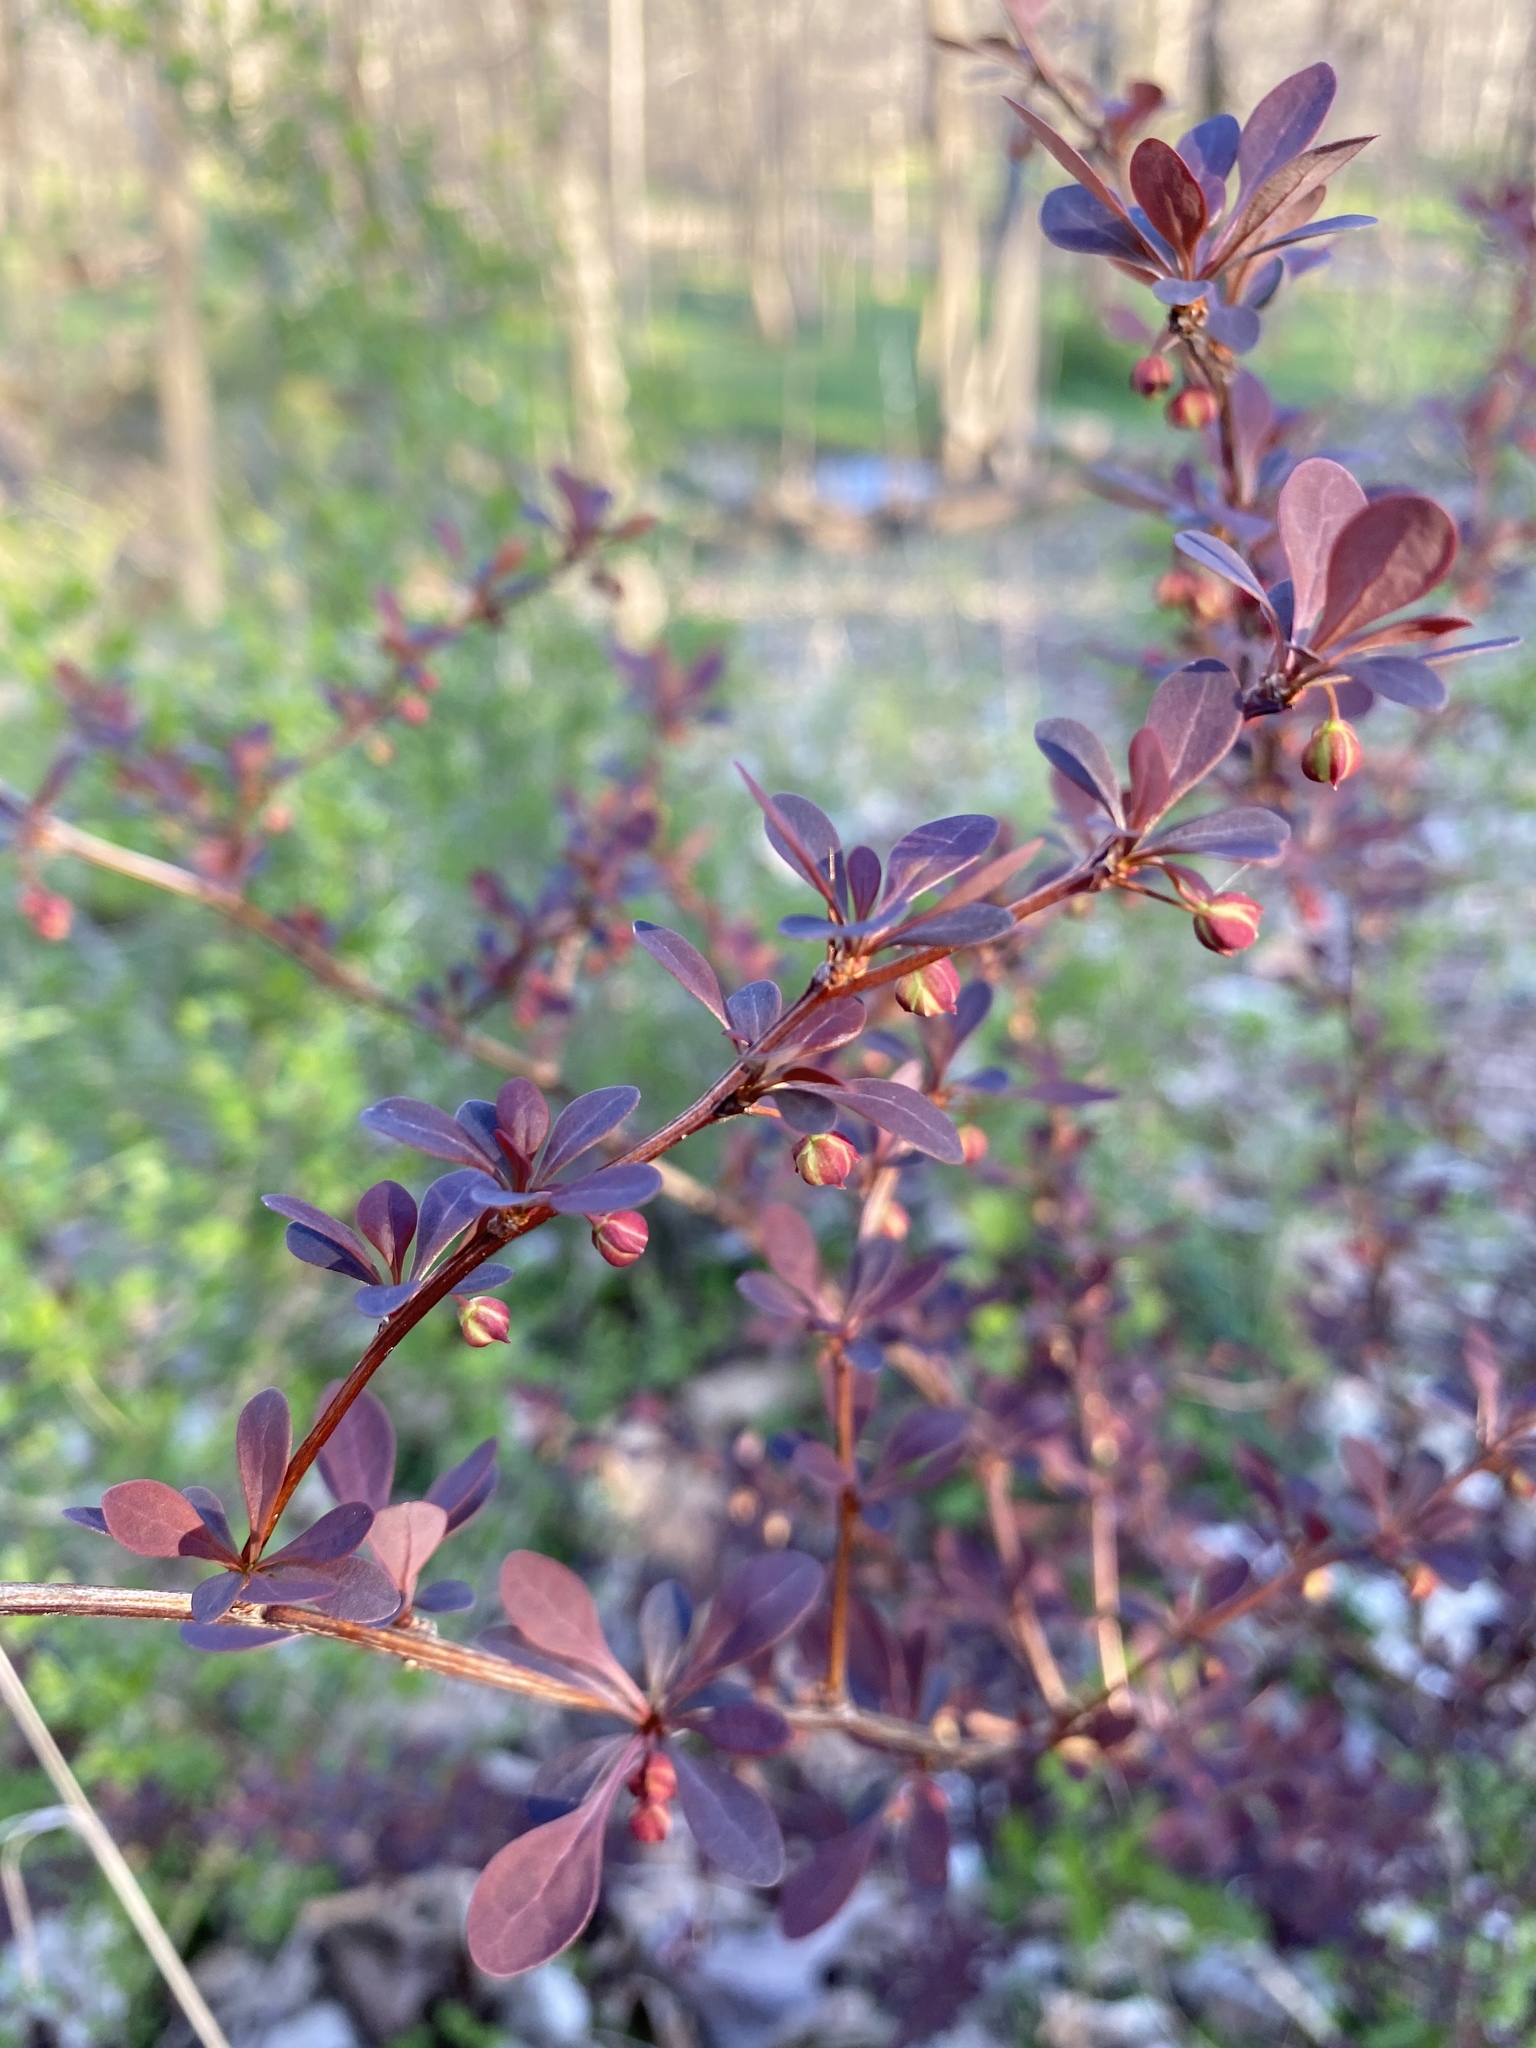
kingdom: Plantae
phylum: Tracheophyta
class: Magnoliopsida
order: Ranunculales
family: Berberidaceae
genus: Berberis
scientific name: Berberis thunbergii
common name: Japanese barberry
